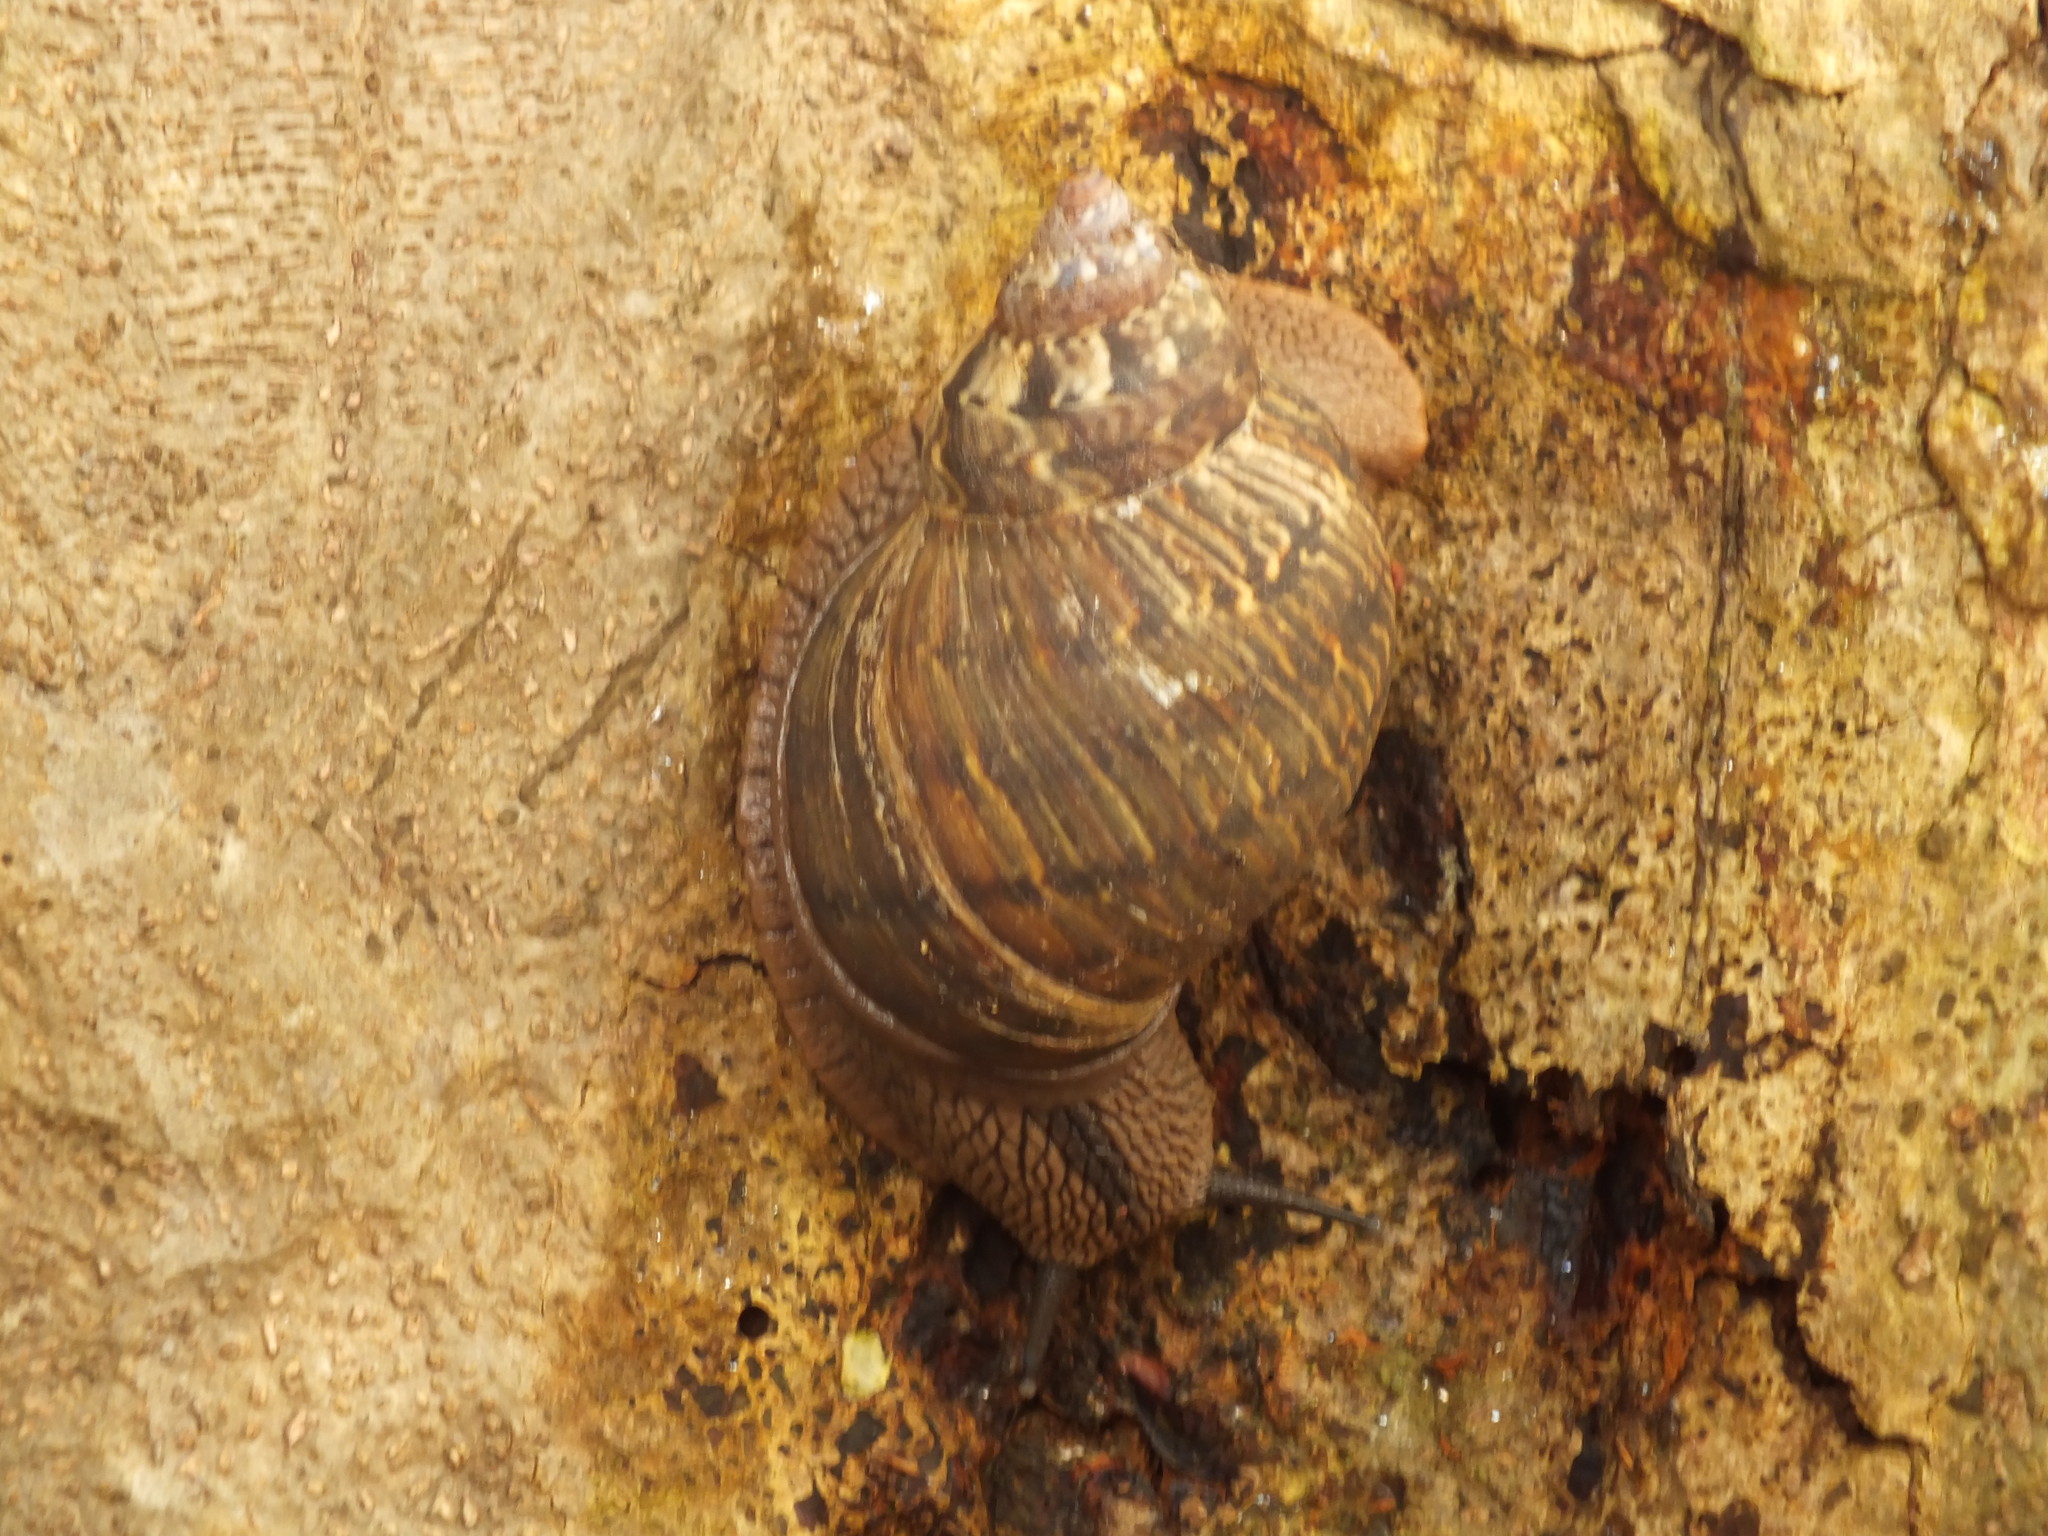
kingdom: Animalia
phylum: Mollusca
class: Gastropoda
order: Stylommatophora
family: Orthalicidae
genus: Sultana
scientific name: Sultana sultana
